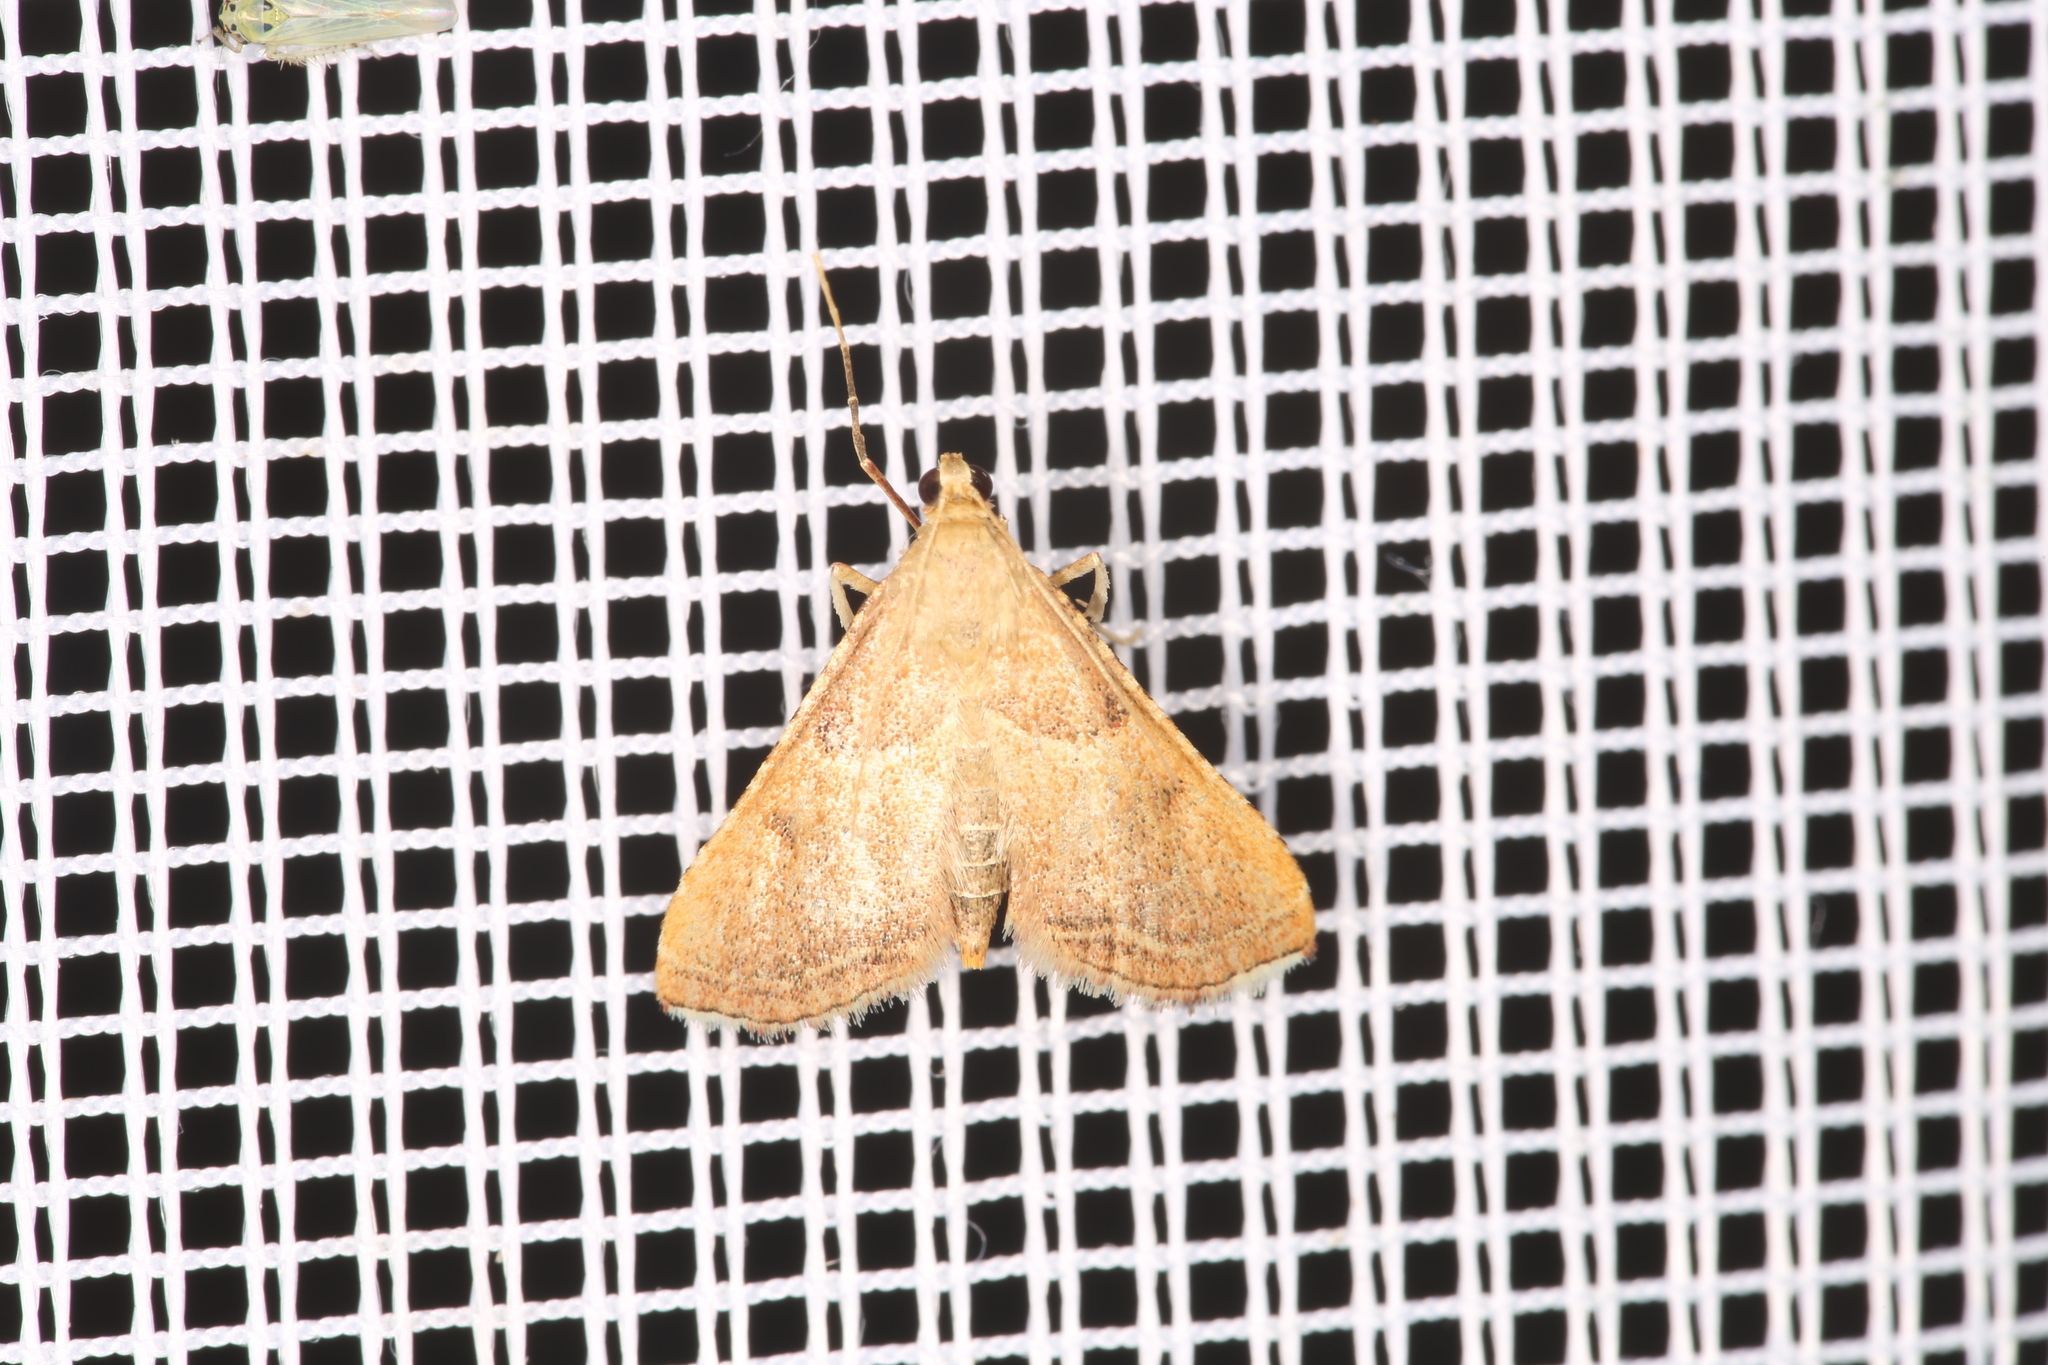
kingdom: Animalia
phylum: Arthropoda
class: Insecta
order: Lepidoptera
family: Pyralidae
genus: Endotricha
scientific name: Endotricha flammealis
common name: Rosy tabby
